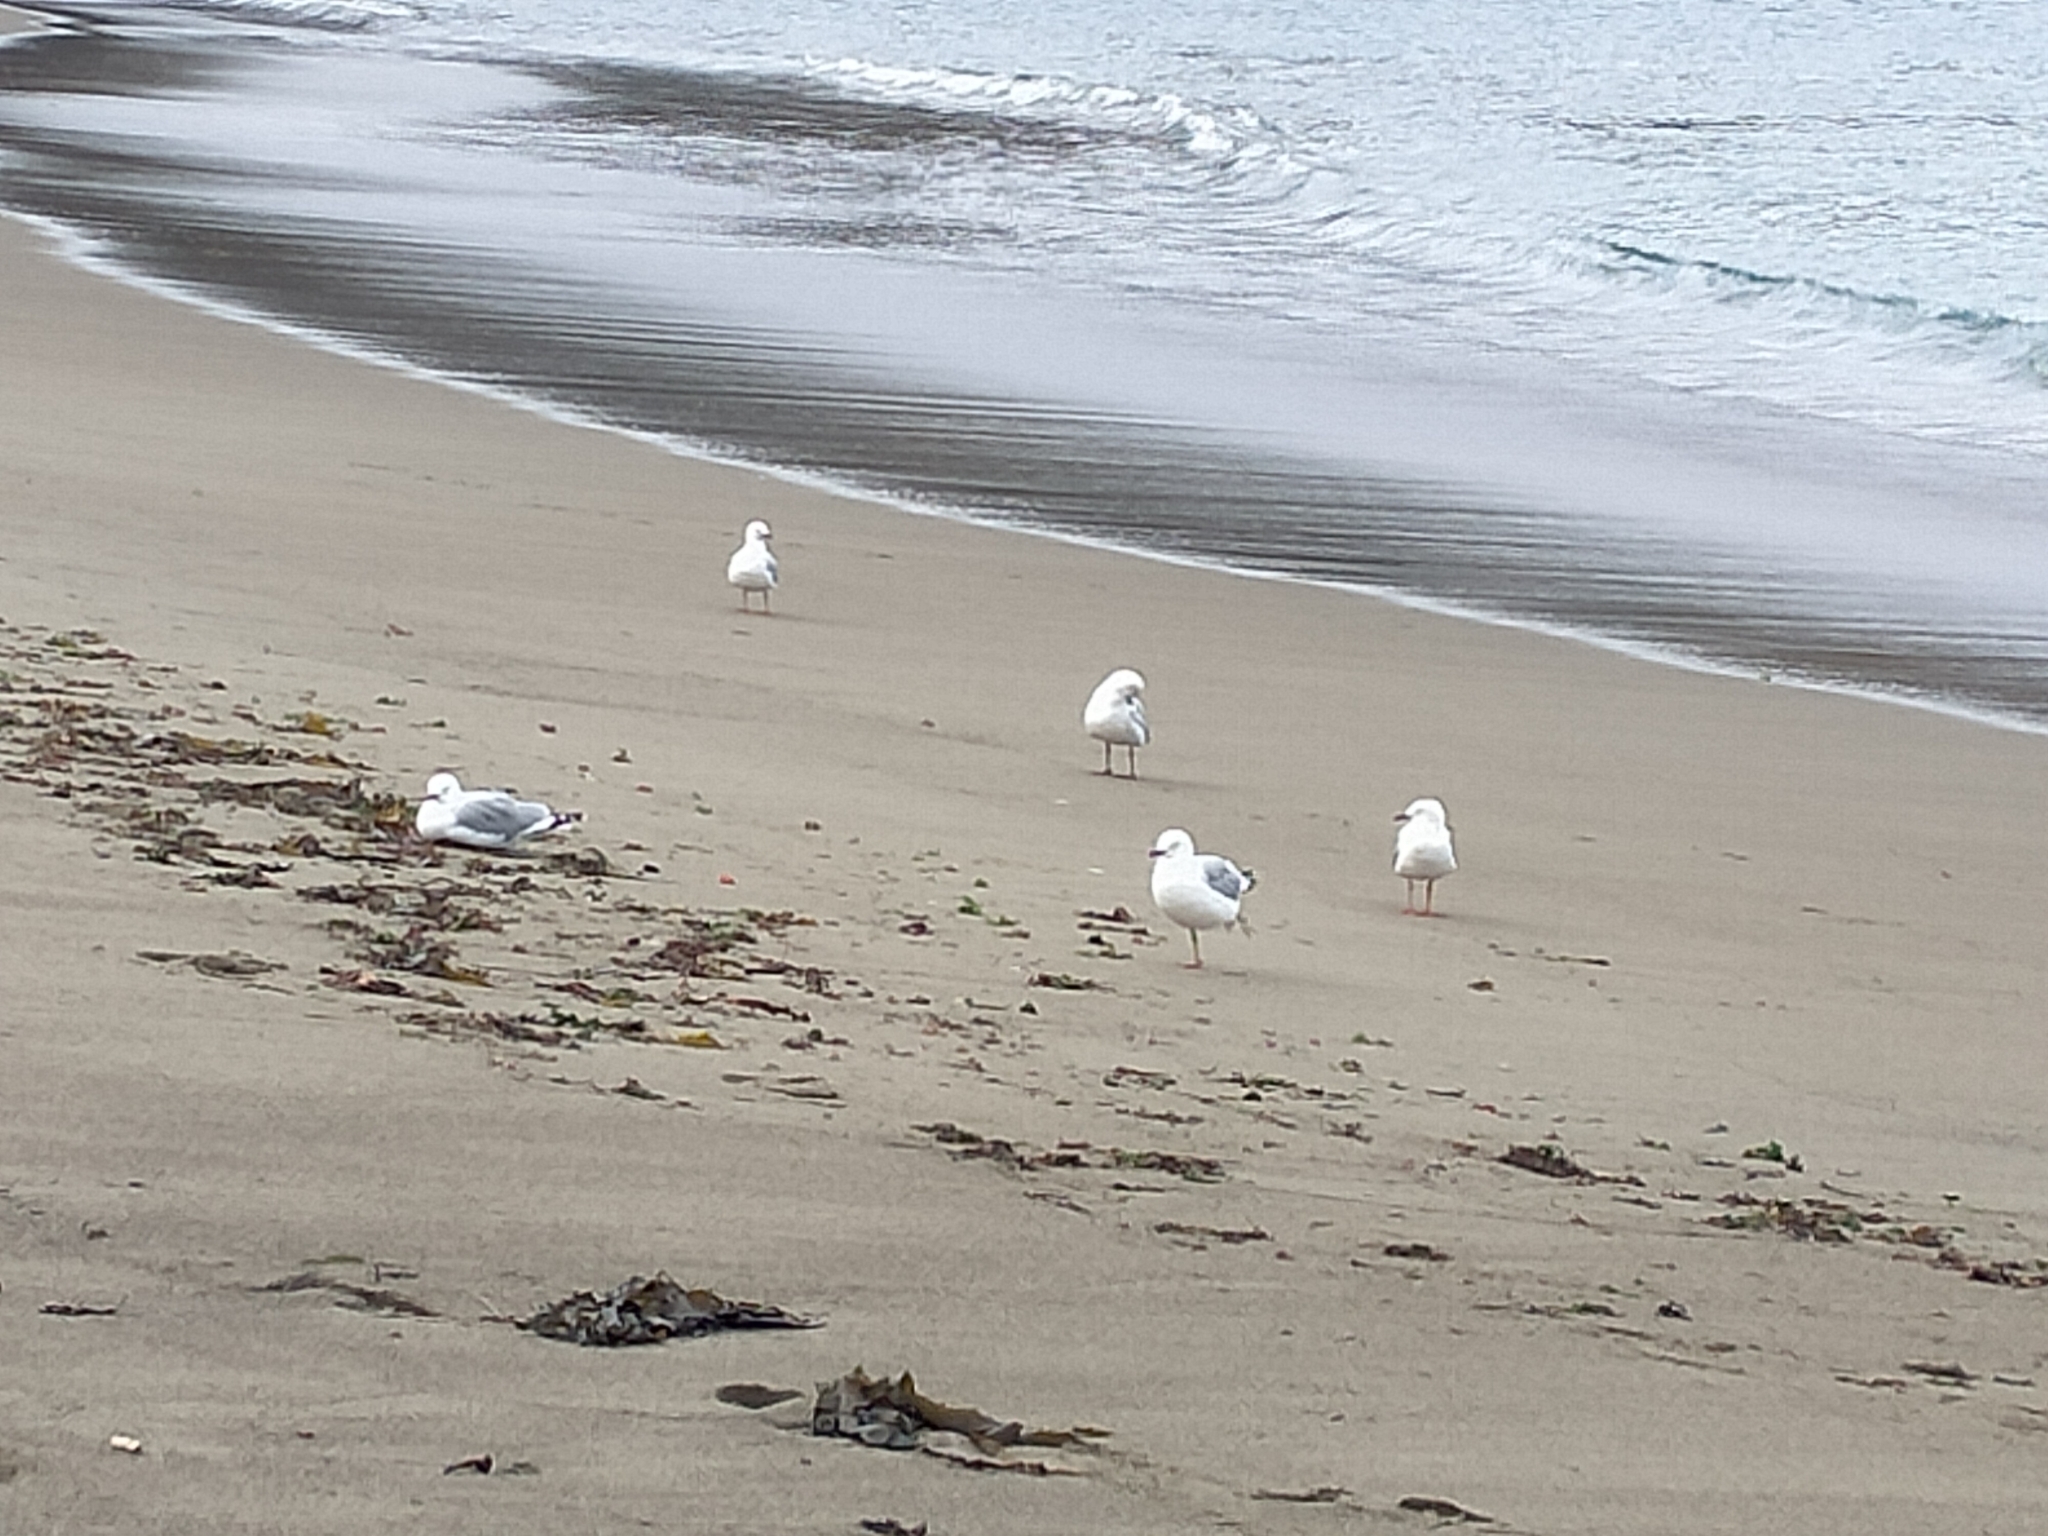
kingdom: Animalia
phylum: Chordata
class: Aves
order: Charadriiformes
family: Laridae
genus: Chroicocephalus
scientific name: Chroicocephalus novaehollandiae
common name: Silver gull
